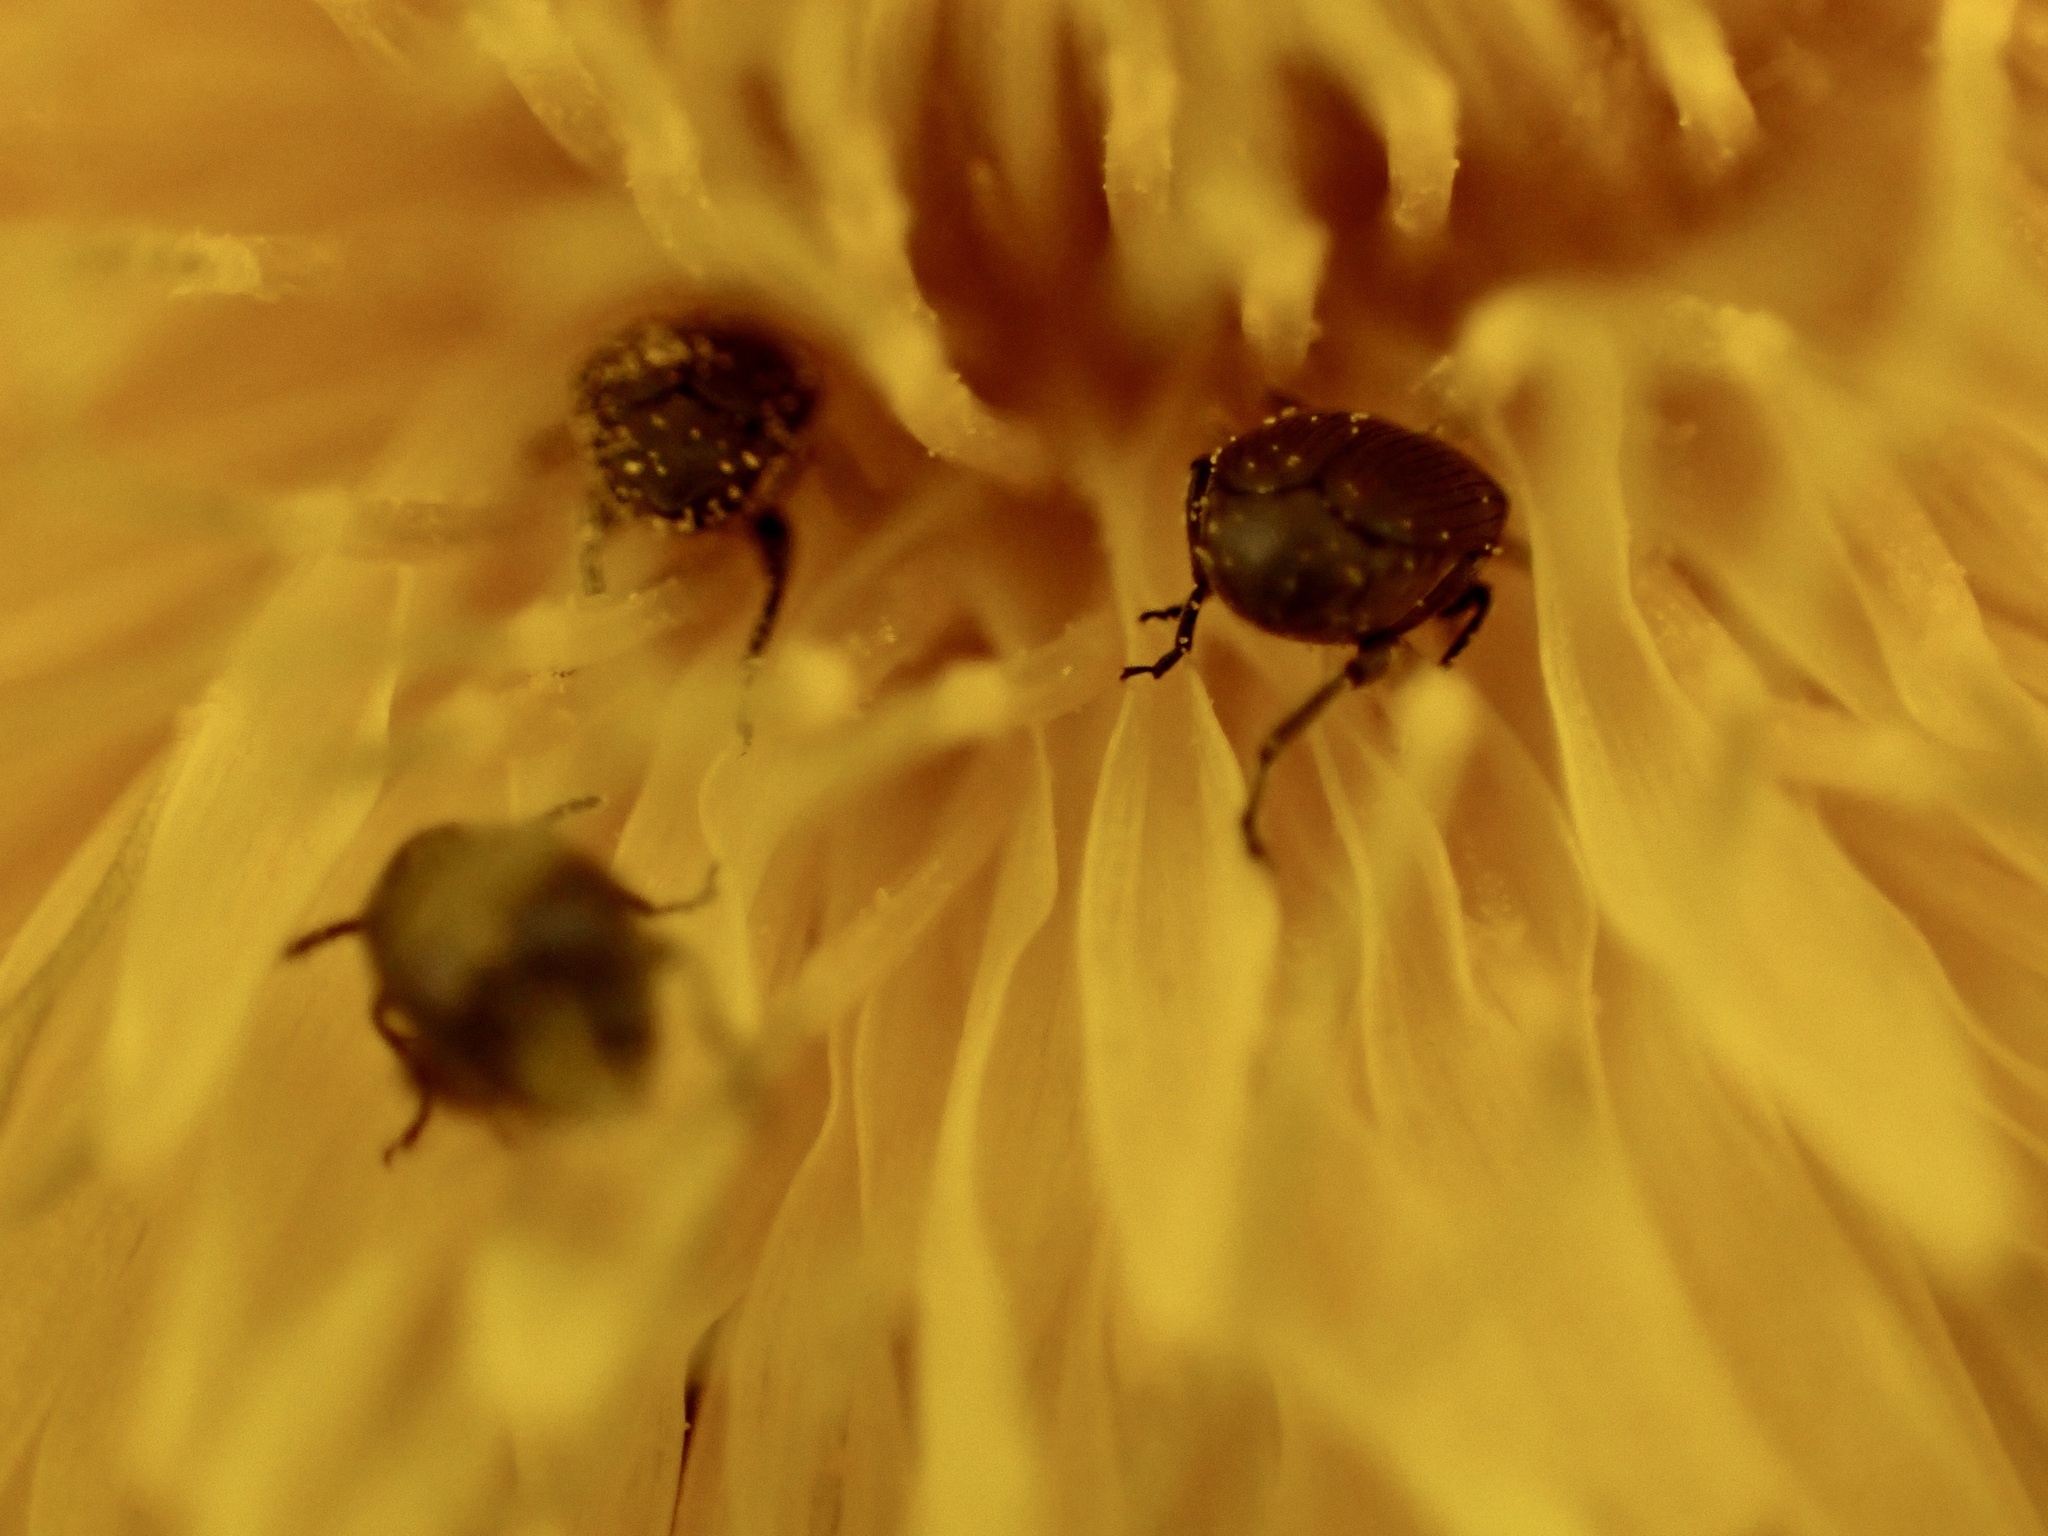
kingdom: Animalia
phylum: Arthropoda
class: Insecta
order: Coleoptera
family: Chrysomelidae
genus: Bruchidius
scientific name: Bruchidius villosus
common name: Scotch broom bruchid
